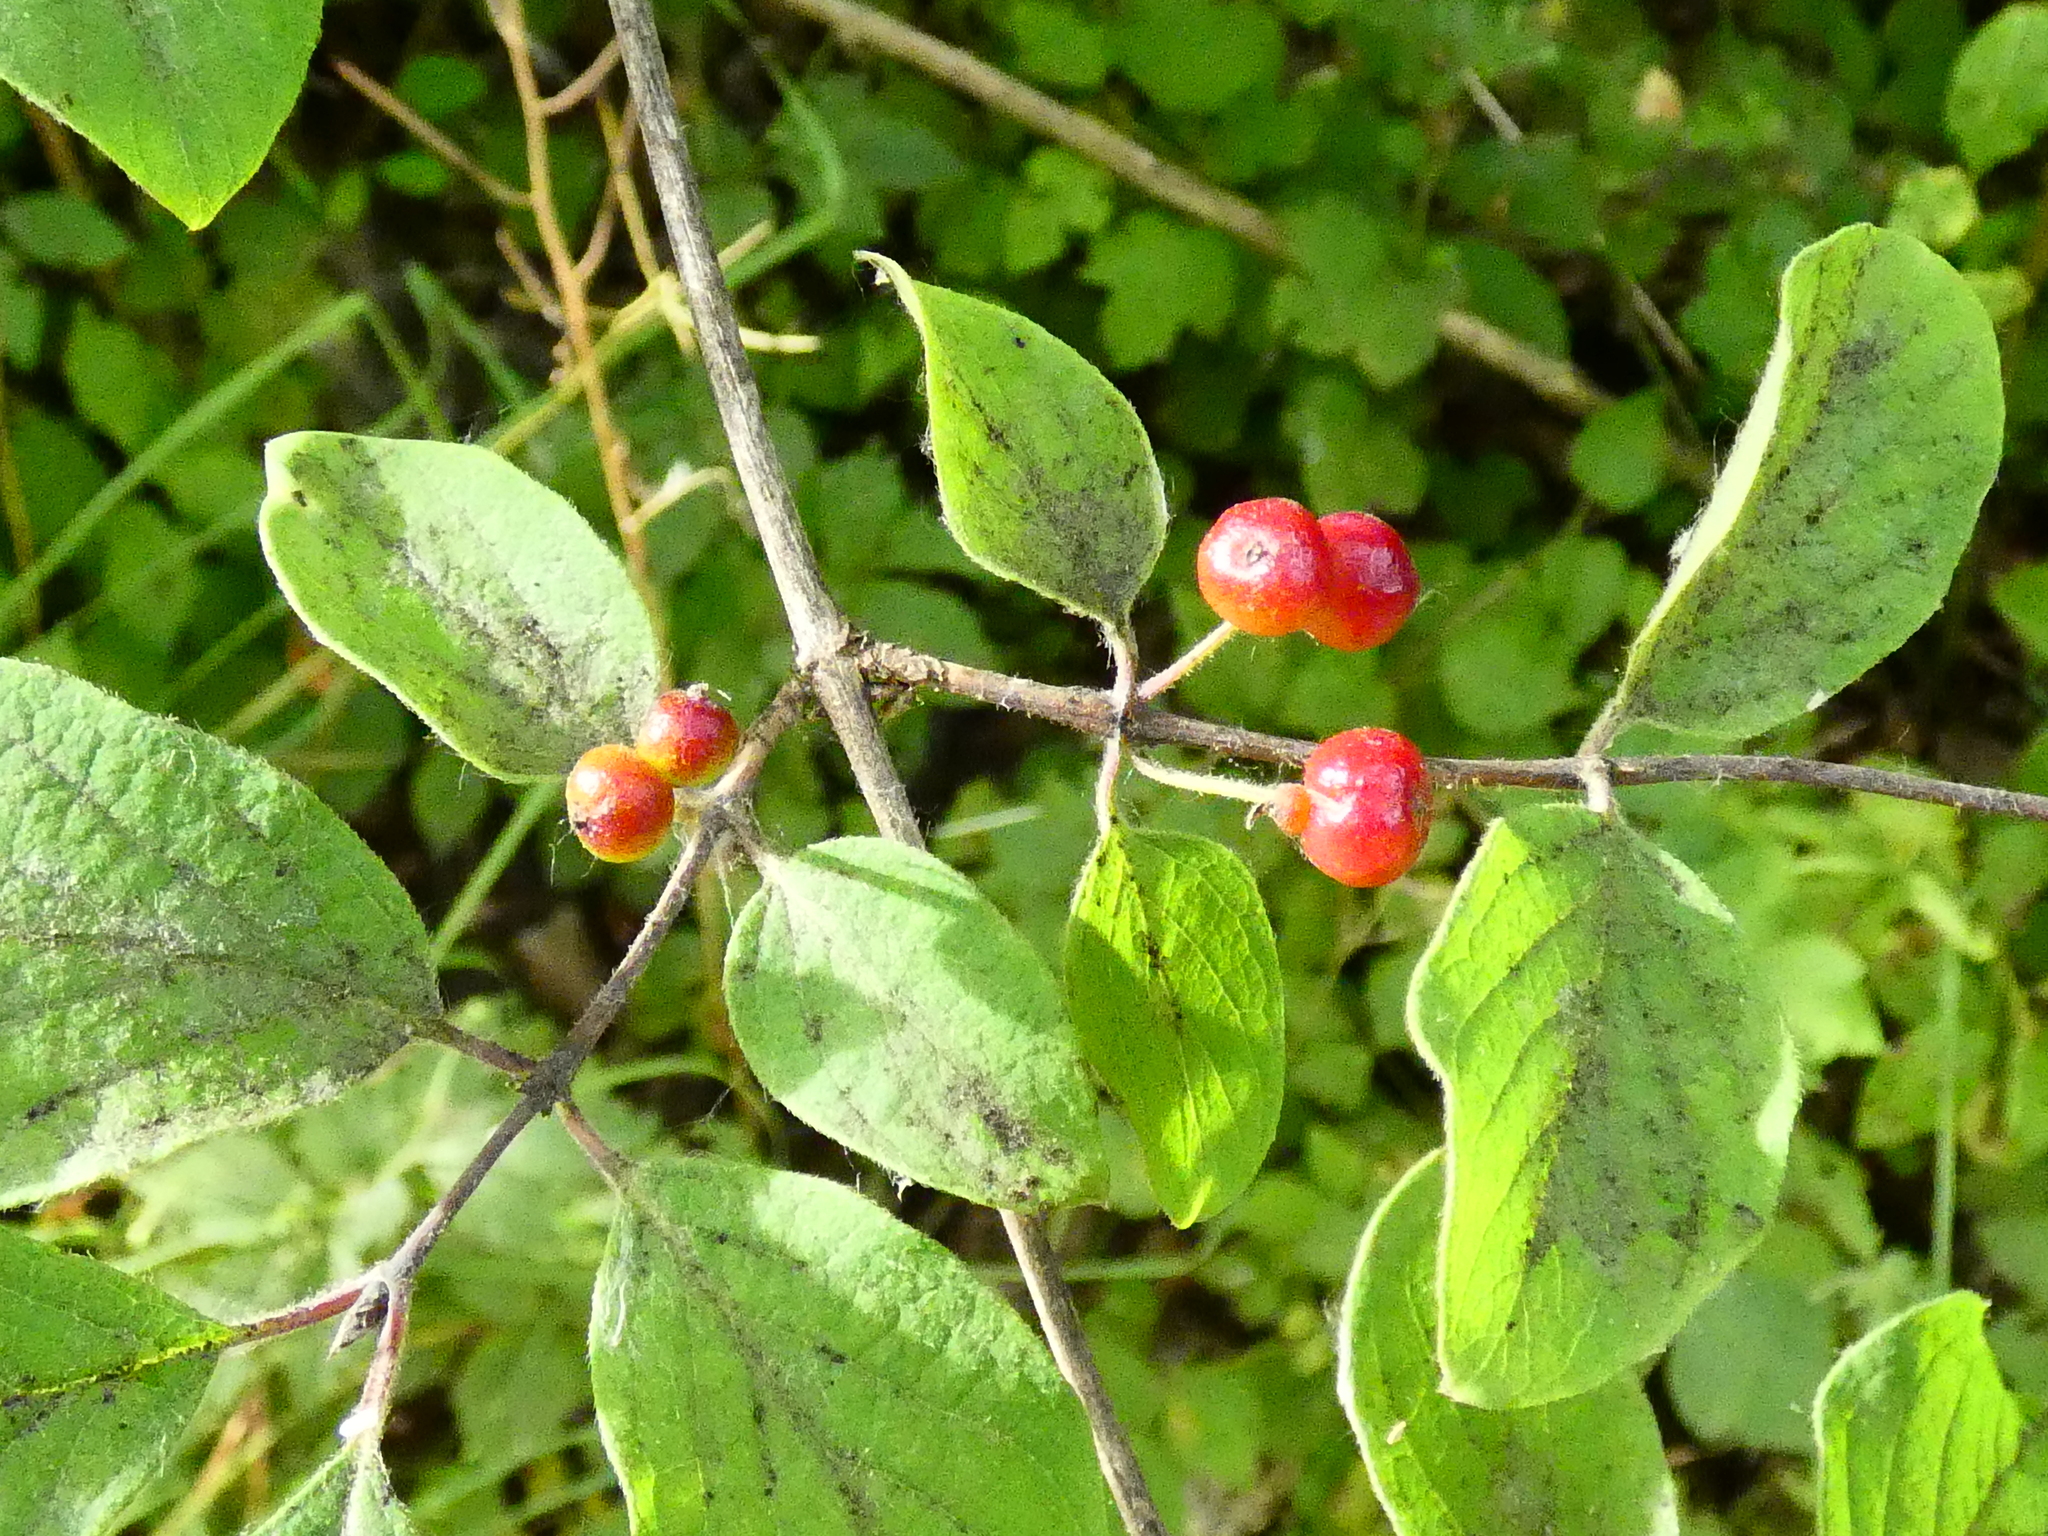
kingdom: Plantae
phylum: Tracheophyta
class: Magnoliopsida
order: Dipsacales
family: Caprifoliaceae
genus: Lonicera
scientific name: Lonicera xylosteum
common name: Fly honeysuckle
